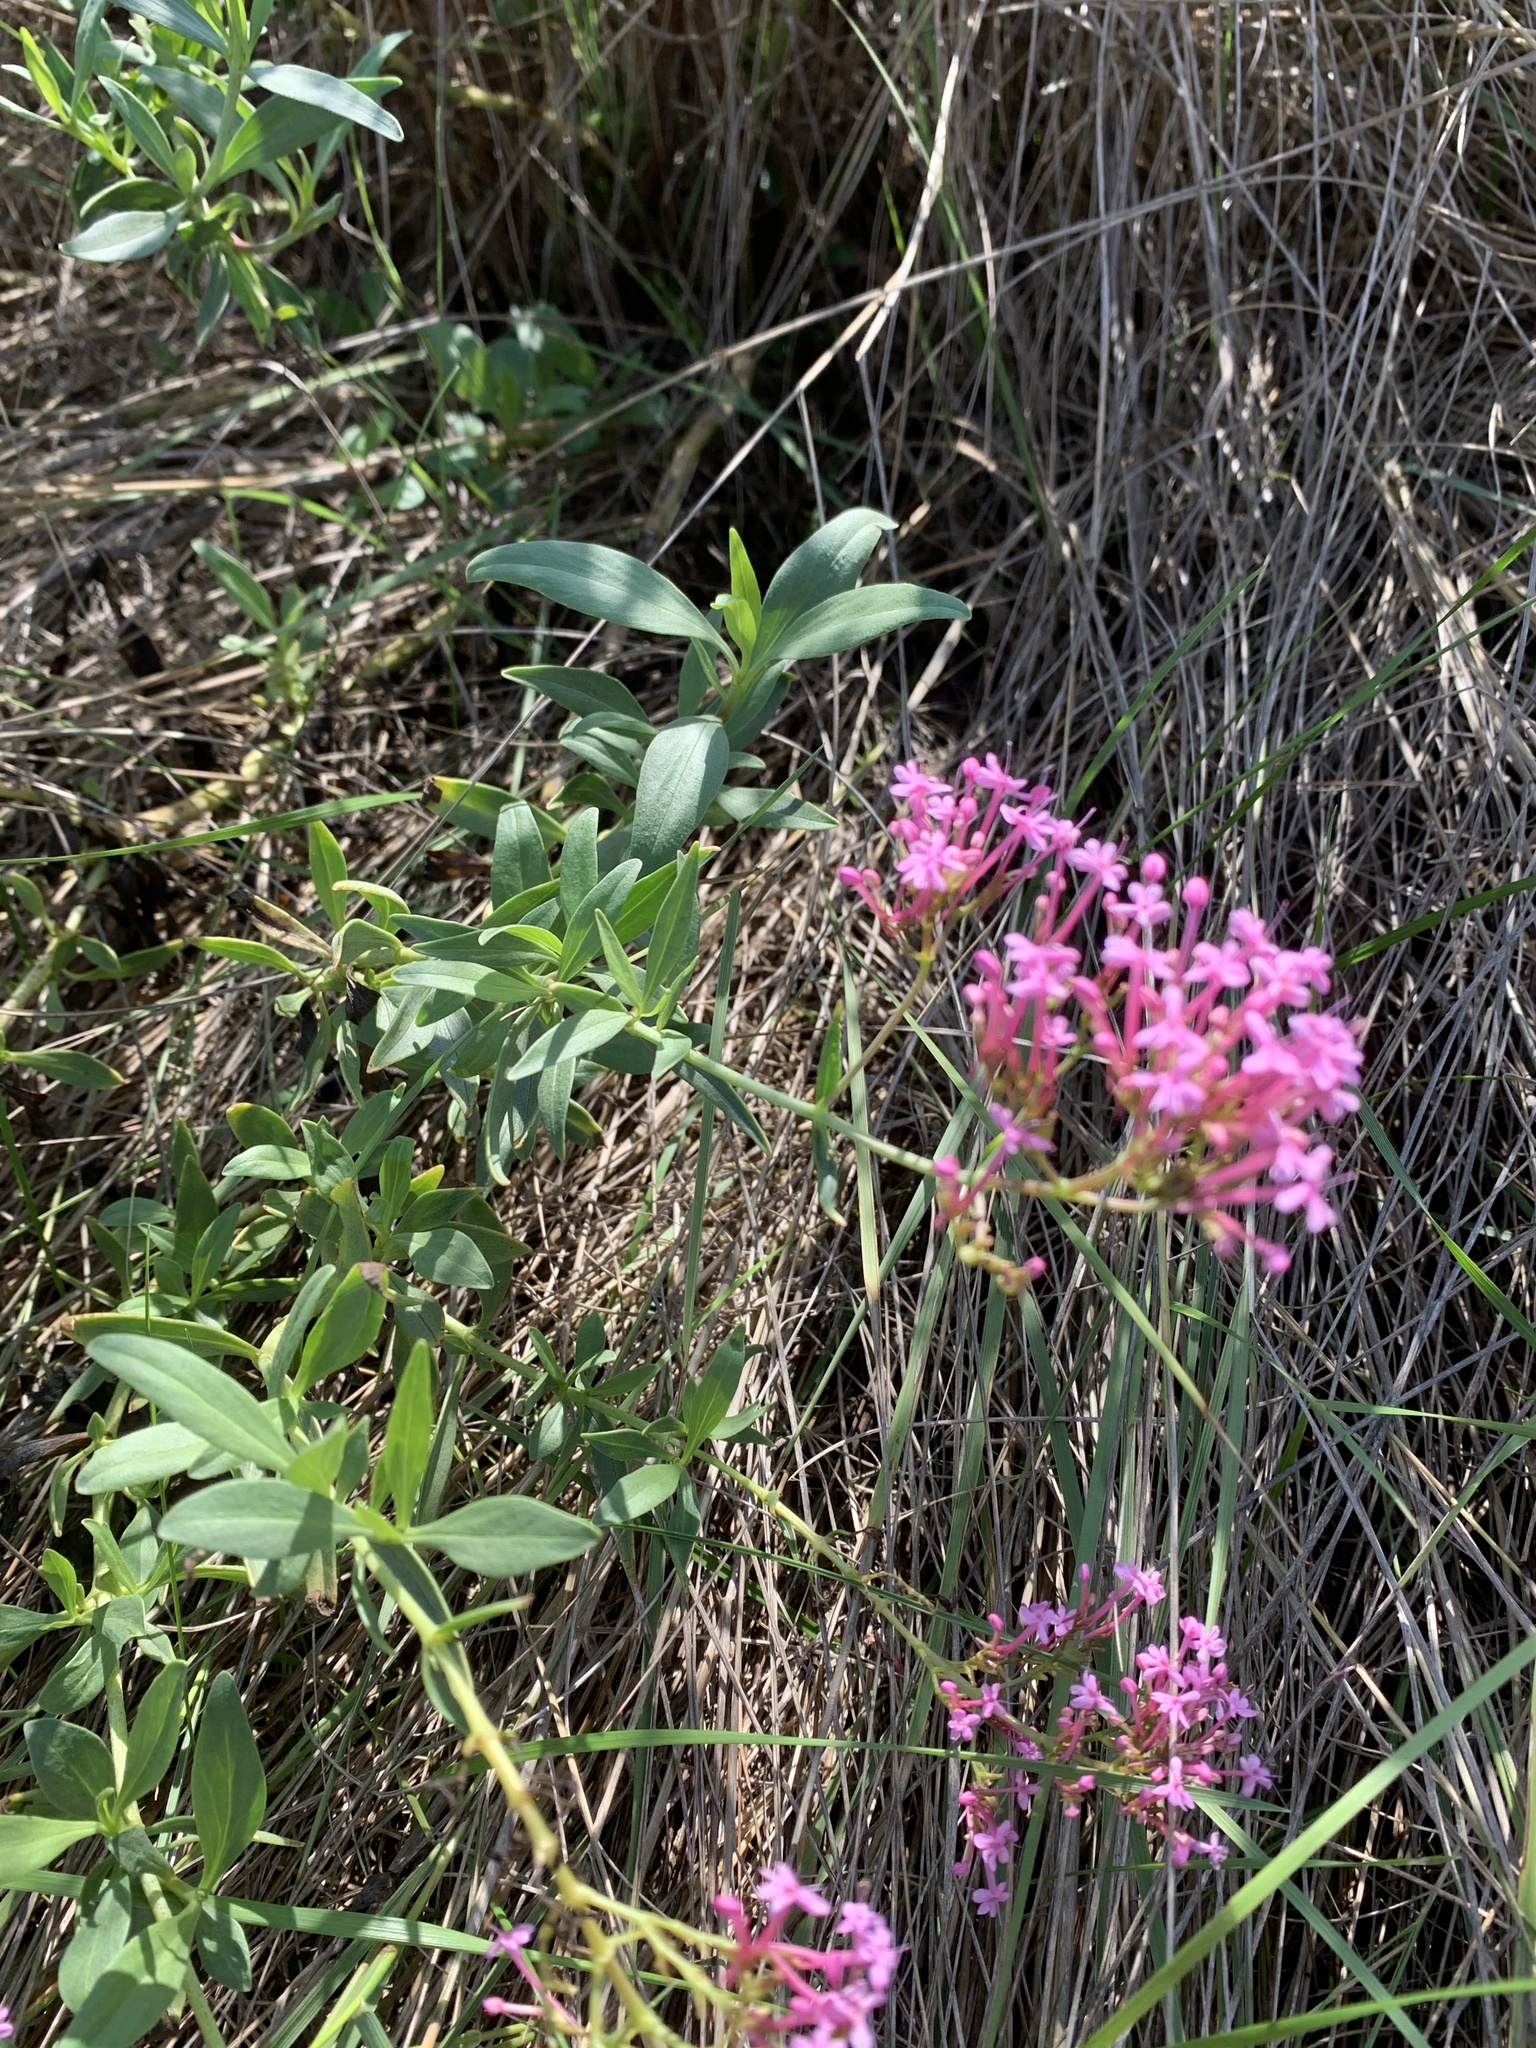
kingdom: Plantae
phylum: Tracheophyta
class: Magnoliopsida
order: Dipsacales
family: Caprifoliaceae
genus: Centranthus
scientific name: Centranthus ruber
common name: Red valerian
